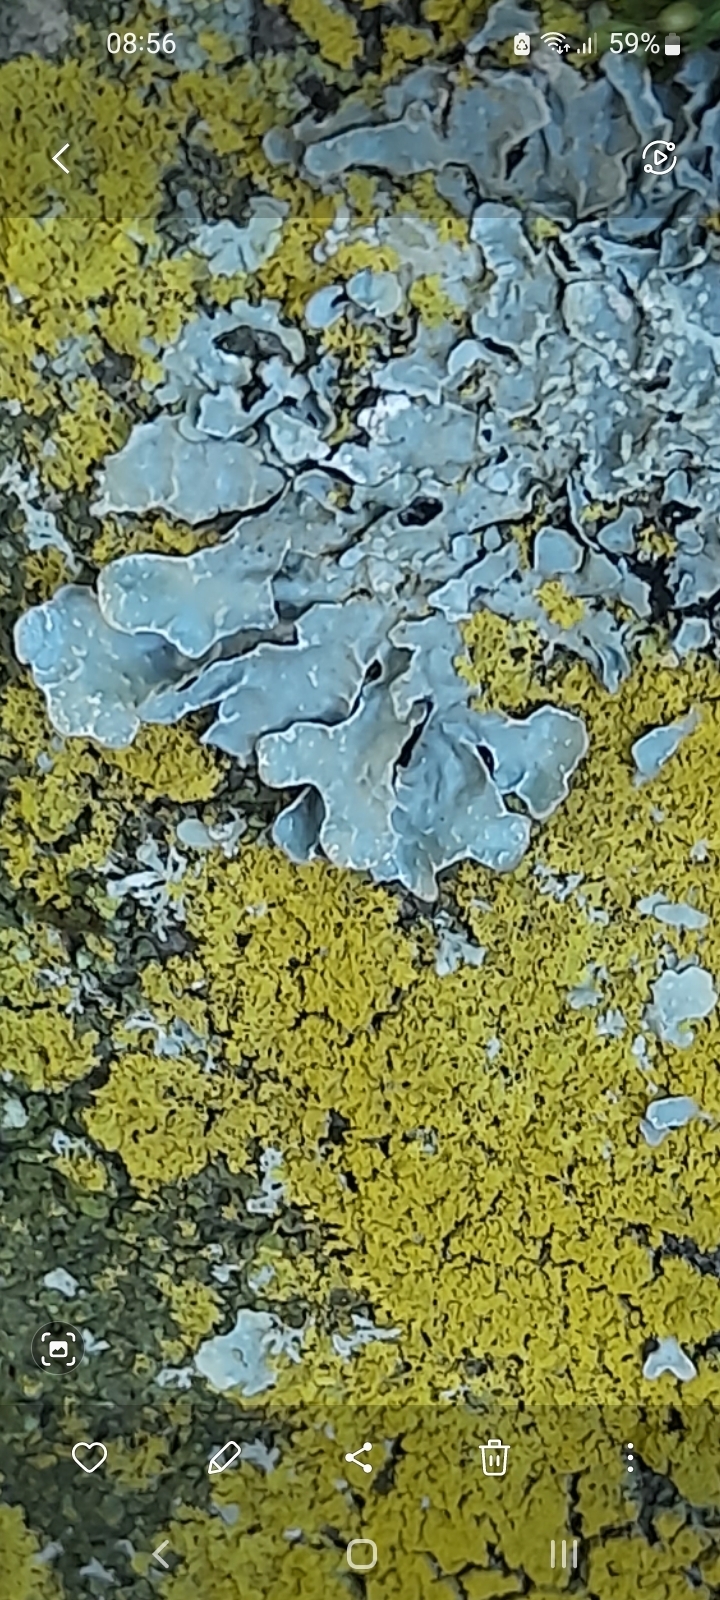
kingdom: Fungi
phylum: Ascomycota
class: Lecanoromycetes
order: Lecanorales
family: Parmeliaceae
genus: Parmelia
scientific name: Parmelia sulcata
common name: Netted shield lichen
